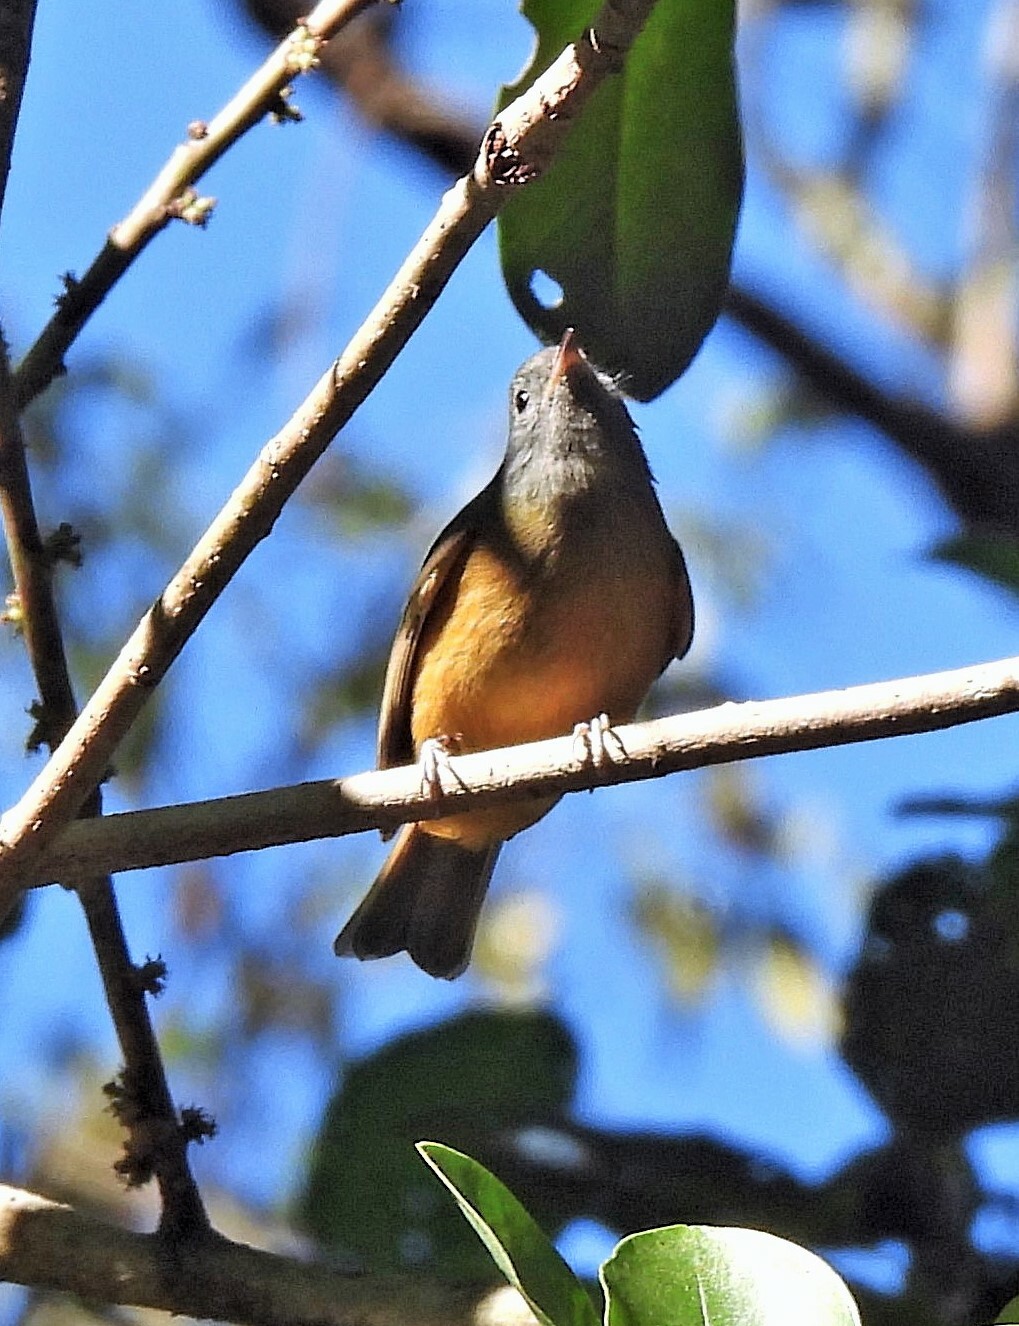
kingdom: Animalia
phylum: Chordata
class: Aves
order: Passeriformes
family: Tyrannidae
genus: Mionectes
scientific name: Mionectes rufiventris
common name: Grey-hooded flycatcher
